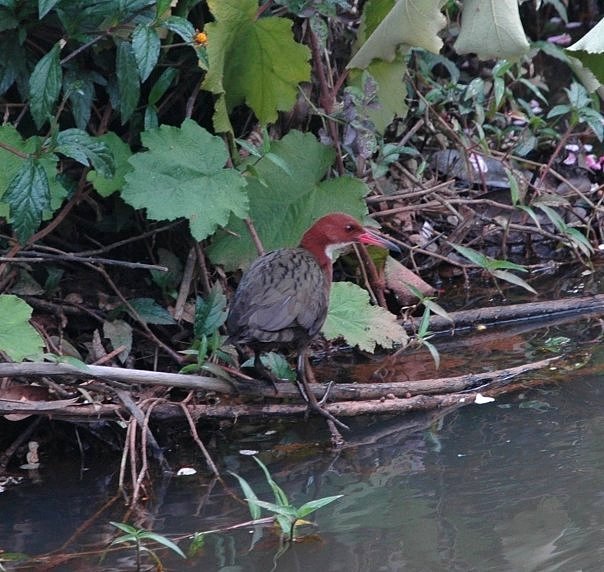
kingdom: Animalia
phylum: Chordata
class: Aves
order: Gruiformes
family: Rallidae
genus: Dryolimnas
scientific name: Dryolimnas cuvieri
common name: White-throated rail
